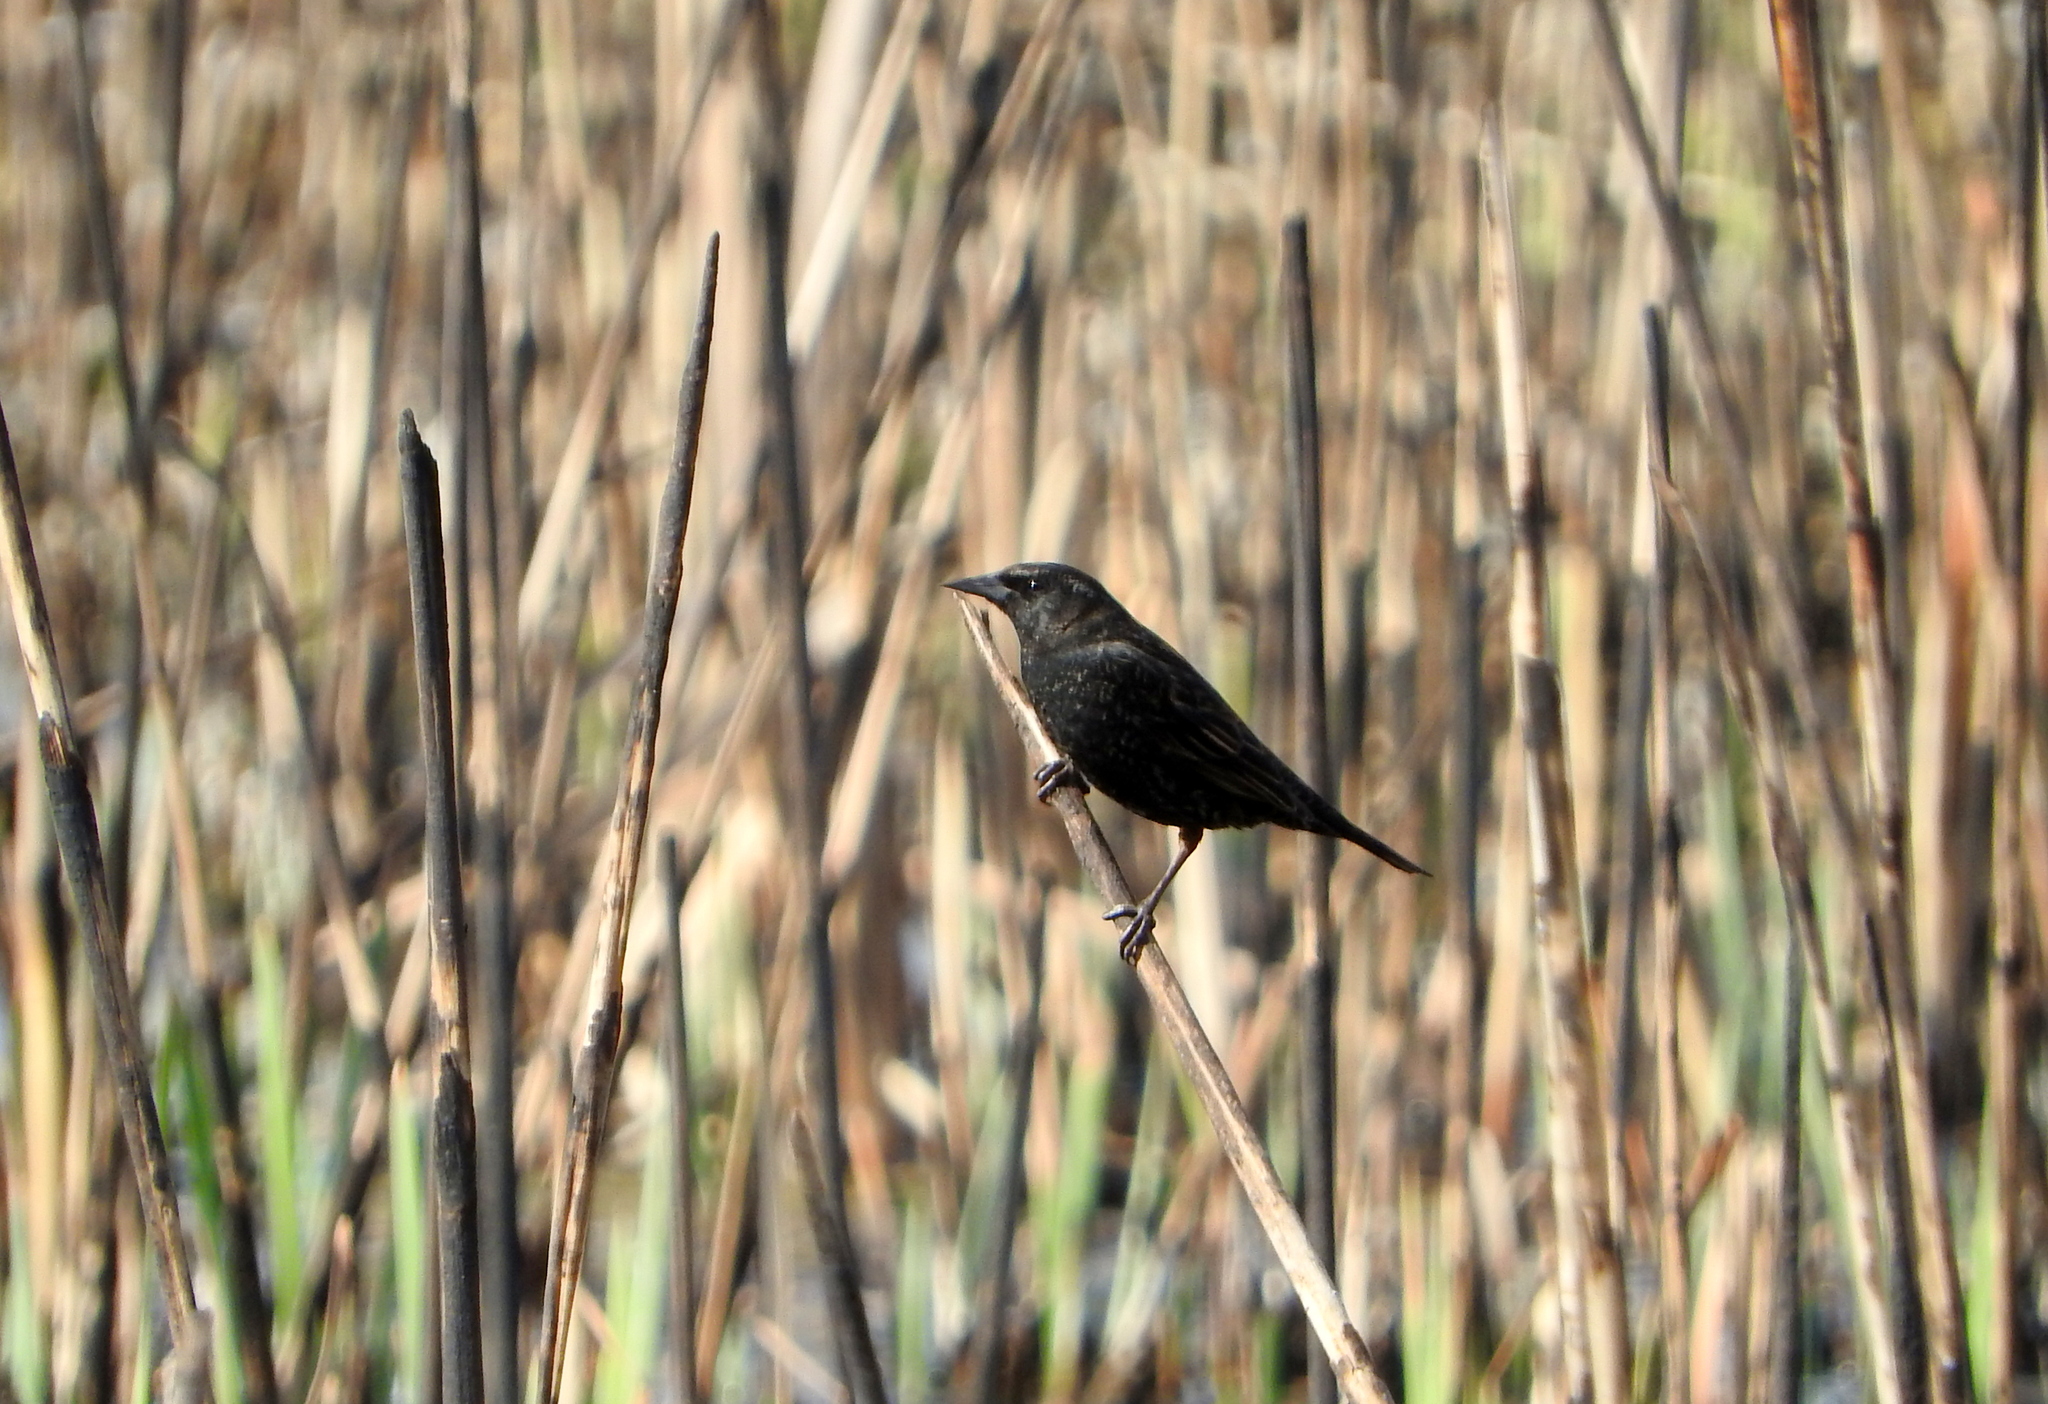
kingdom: Animalia
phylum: Chordata
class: Aves
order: Passeriformes
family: Icteridae
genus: Agelasticus
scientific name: Agelasticus thilius
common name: Yellow-winged blackbird
